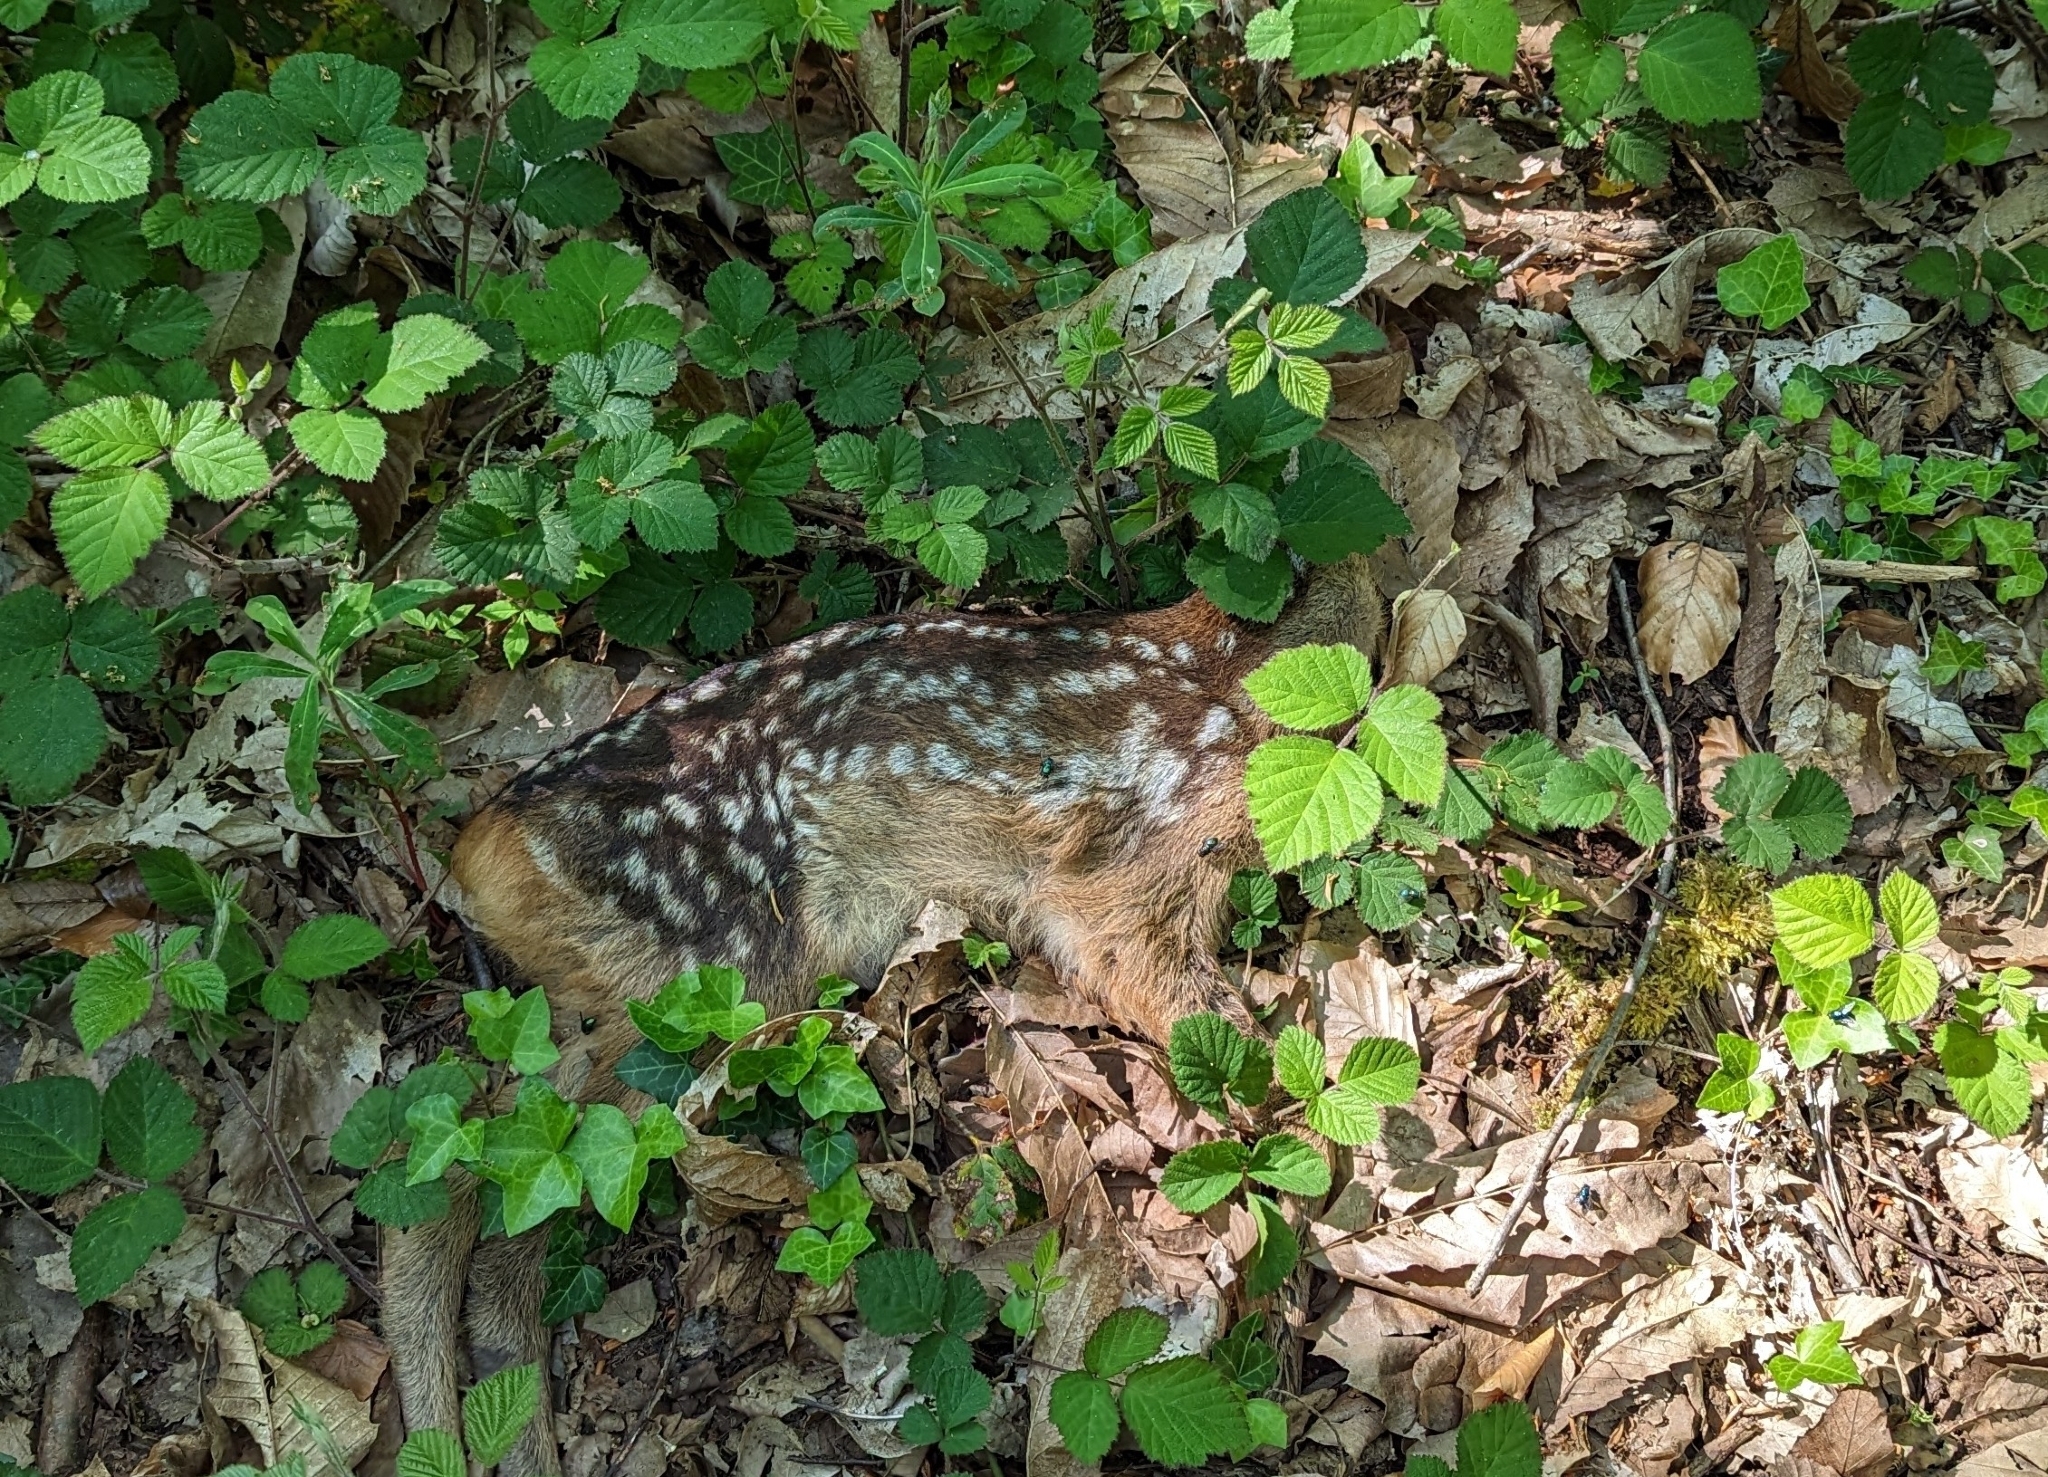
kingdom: Animalia
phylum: Chordata
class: Mammalia
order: Artiodactyla
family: Cervidae
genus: Capreolus
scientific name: Capreolus capreolus
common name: Western roe deer
